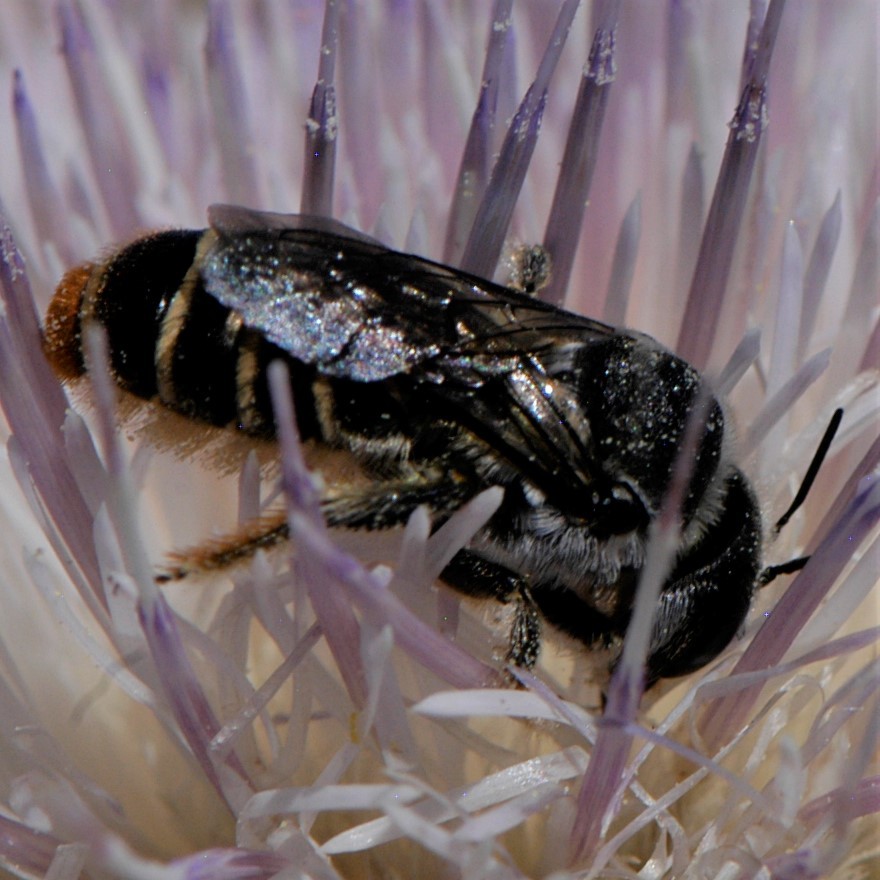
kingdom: Animalia
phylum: Arthropoda
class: Insecta
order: Hymenoptera
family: Megachilidae
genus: Lithurgopsis
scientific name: Lithurgopsis apicalis
